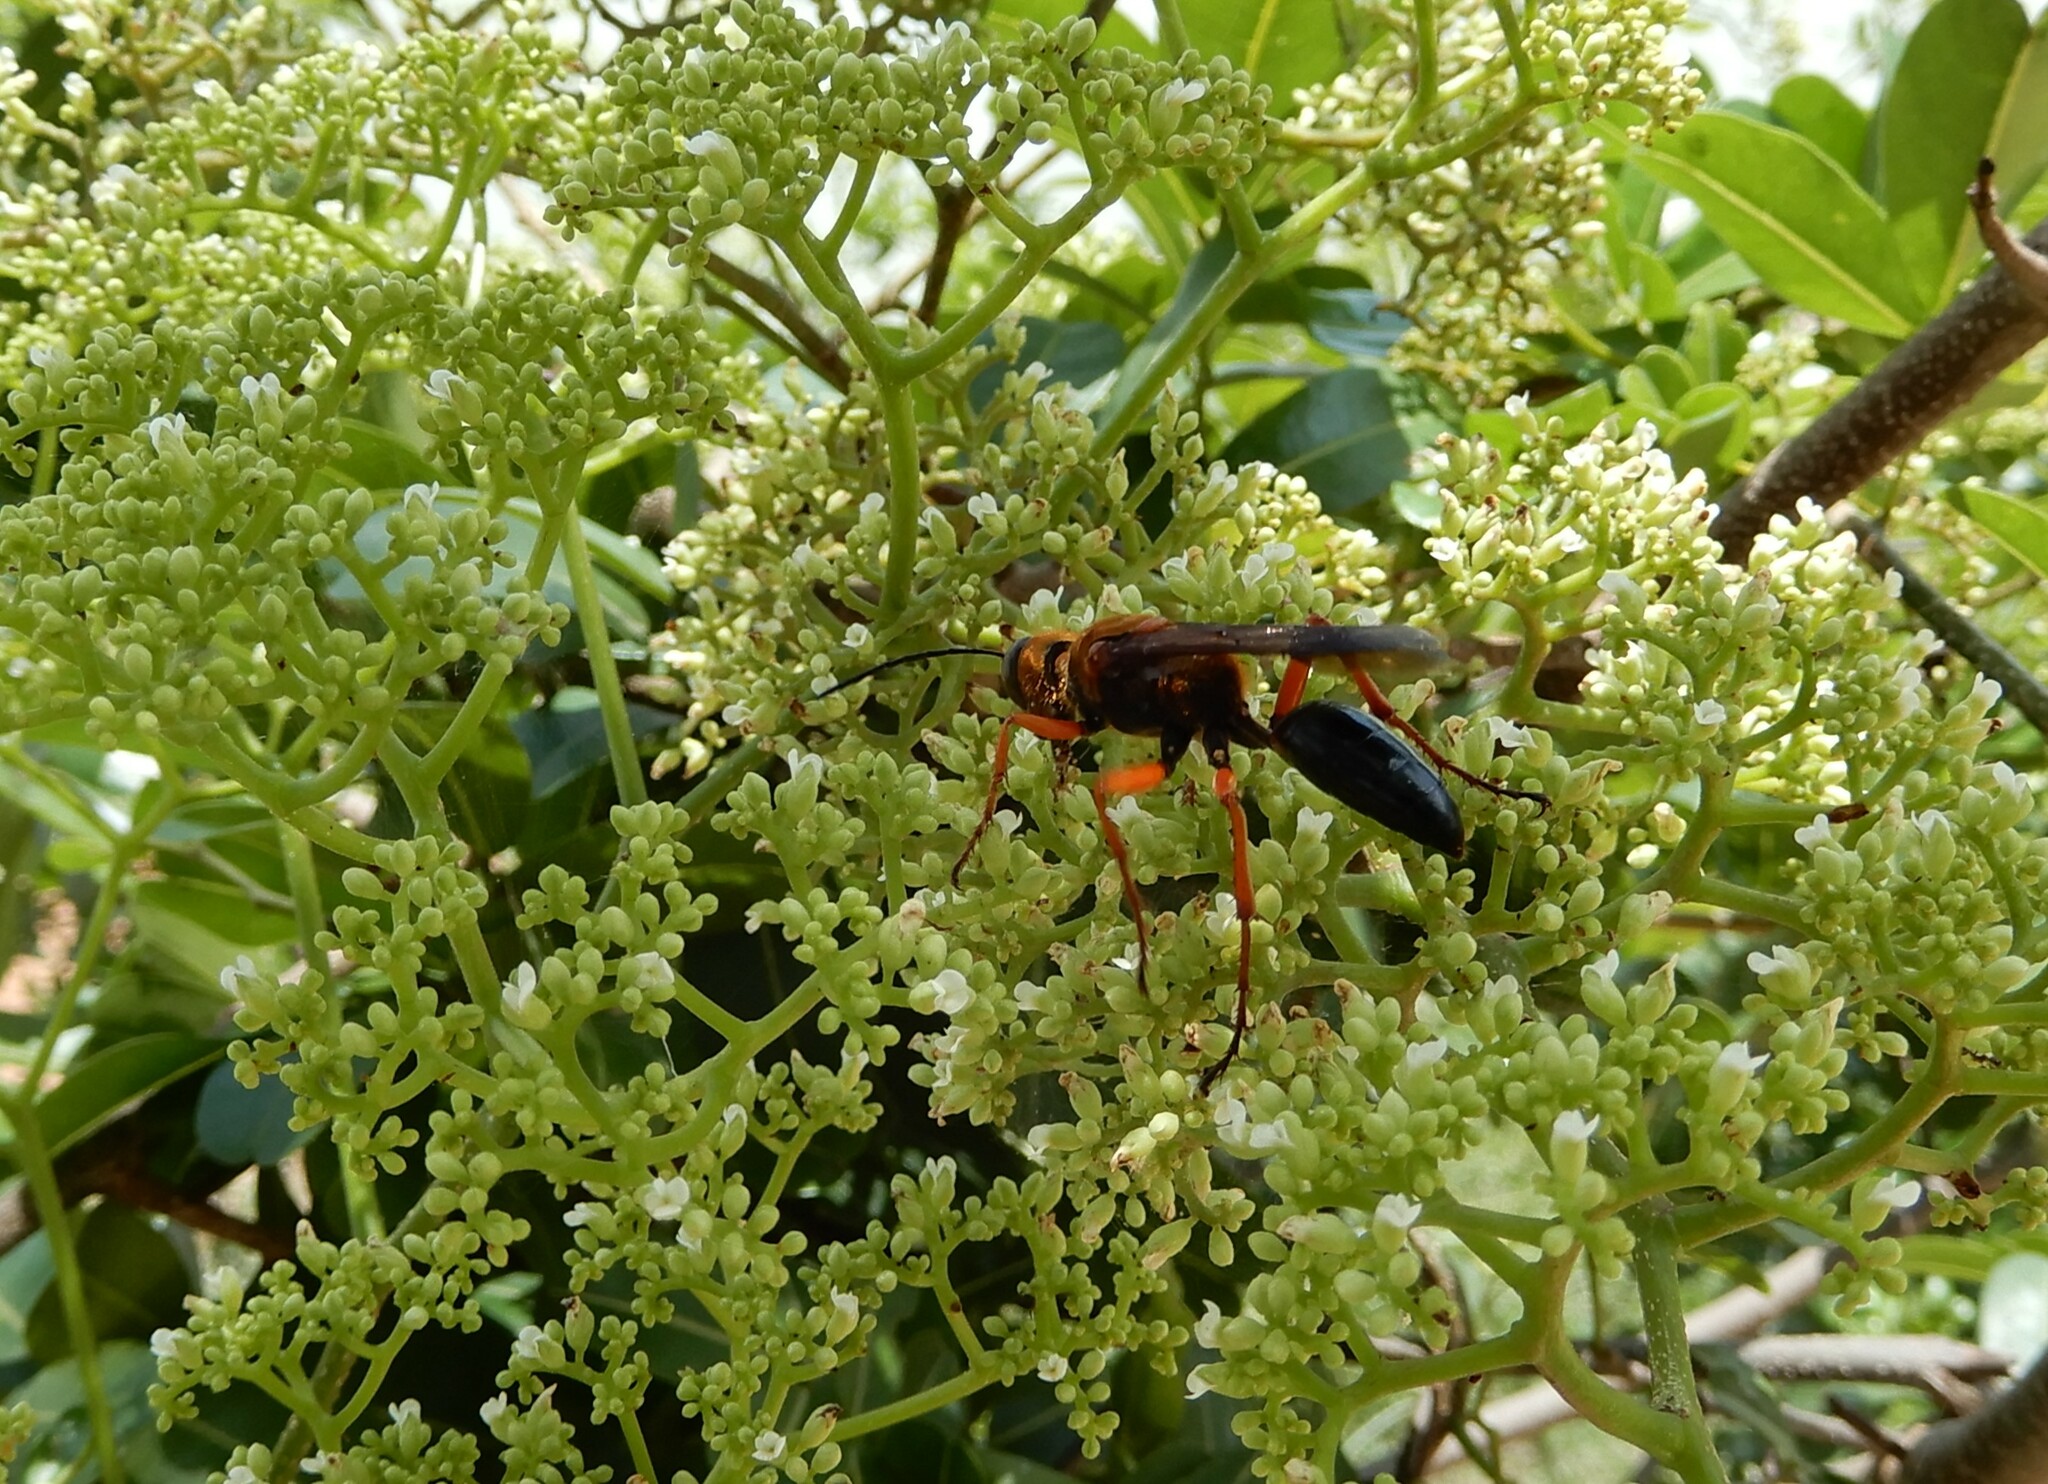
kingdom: Animalia
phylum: Arthropoda
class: Insecta
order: Hymenoptera
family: Sphecidae
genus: Sphex
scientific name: Sphex sericeus
